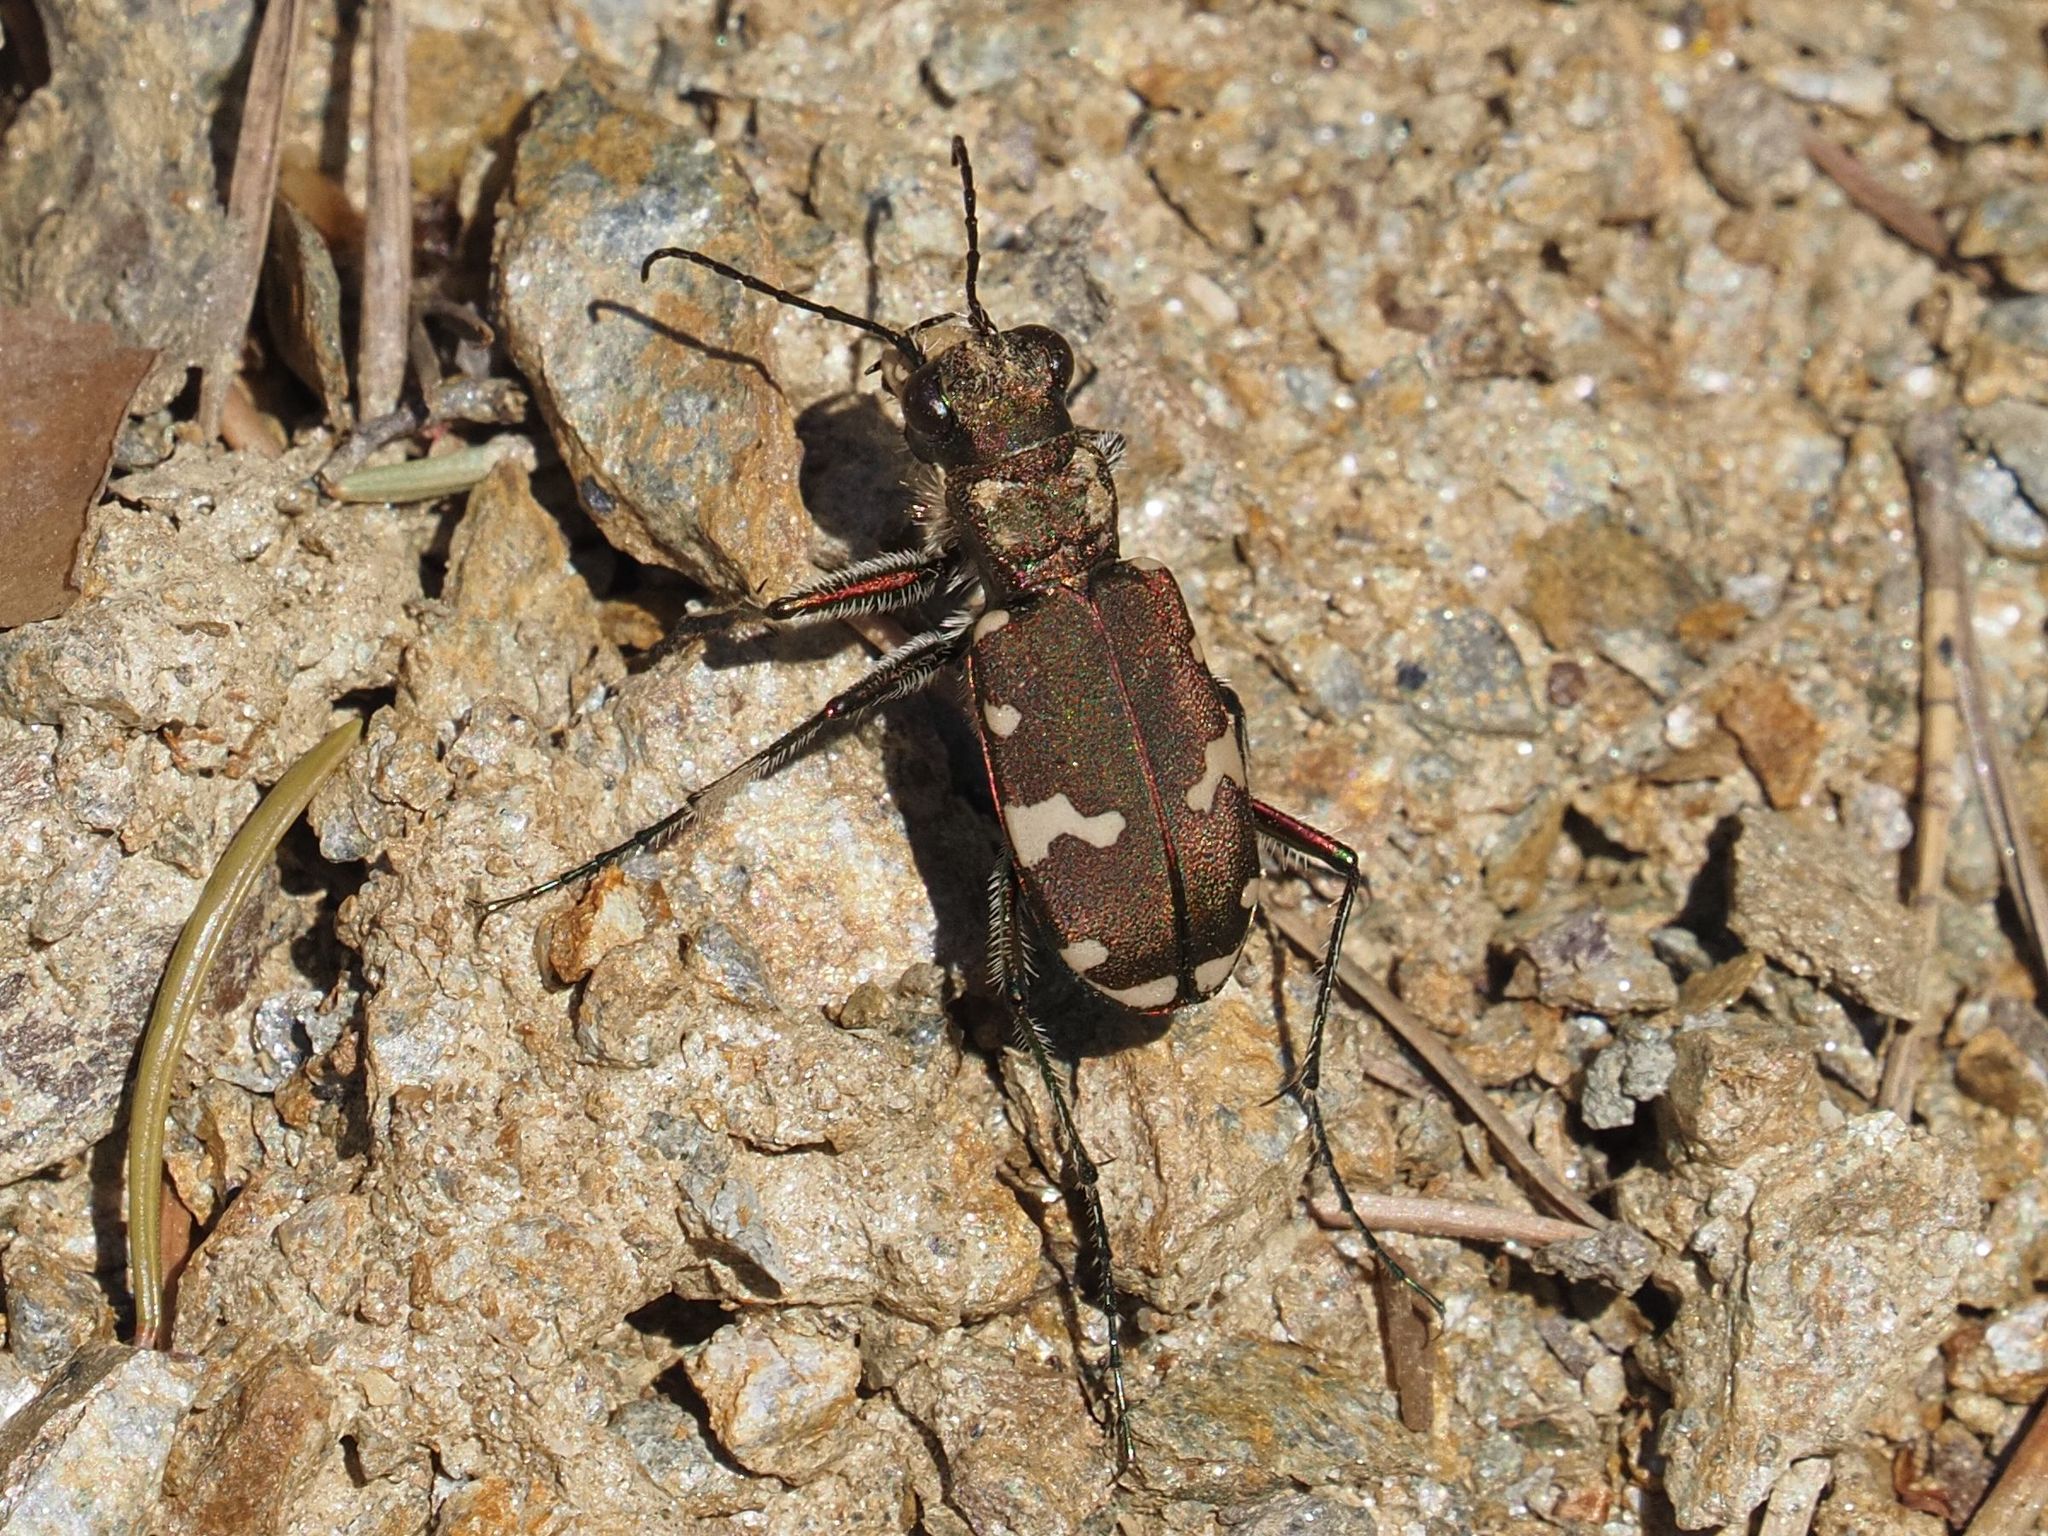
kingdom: Animalia
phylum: Arthropoda
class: Insecta
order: Coleoptera
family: Carabidae
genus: Cicindela
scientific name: Cicindela sylvicola
